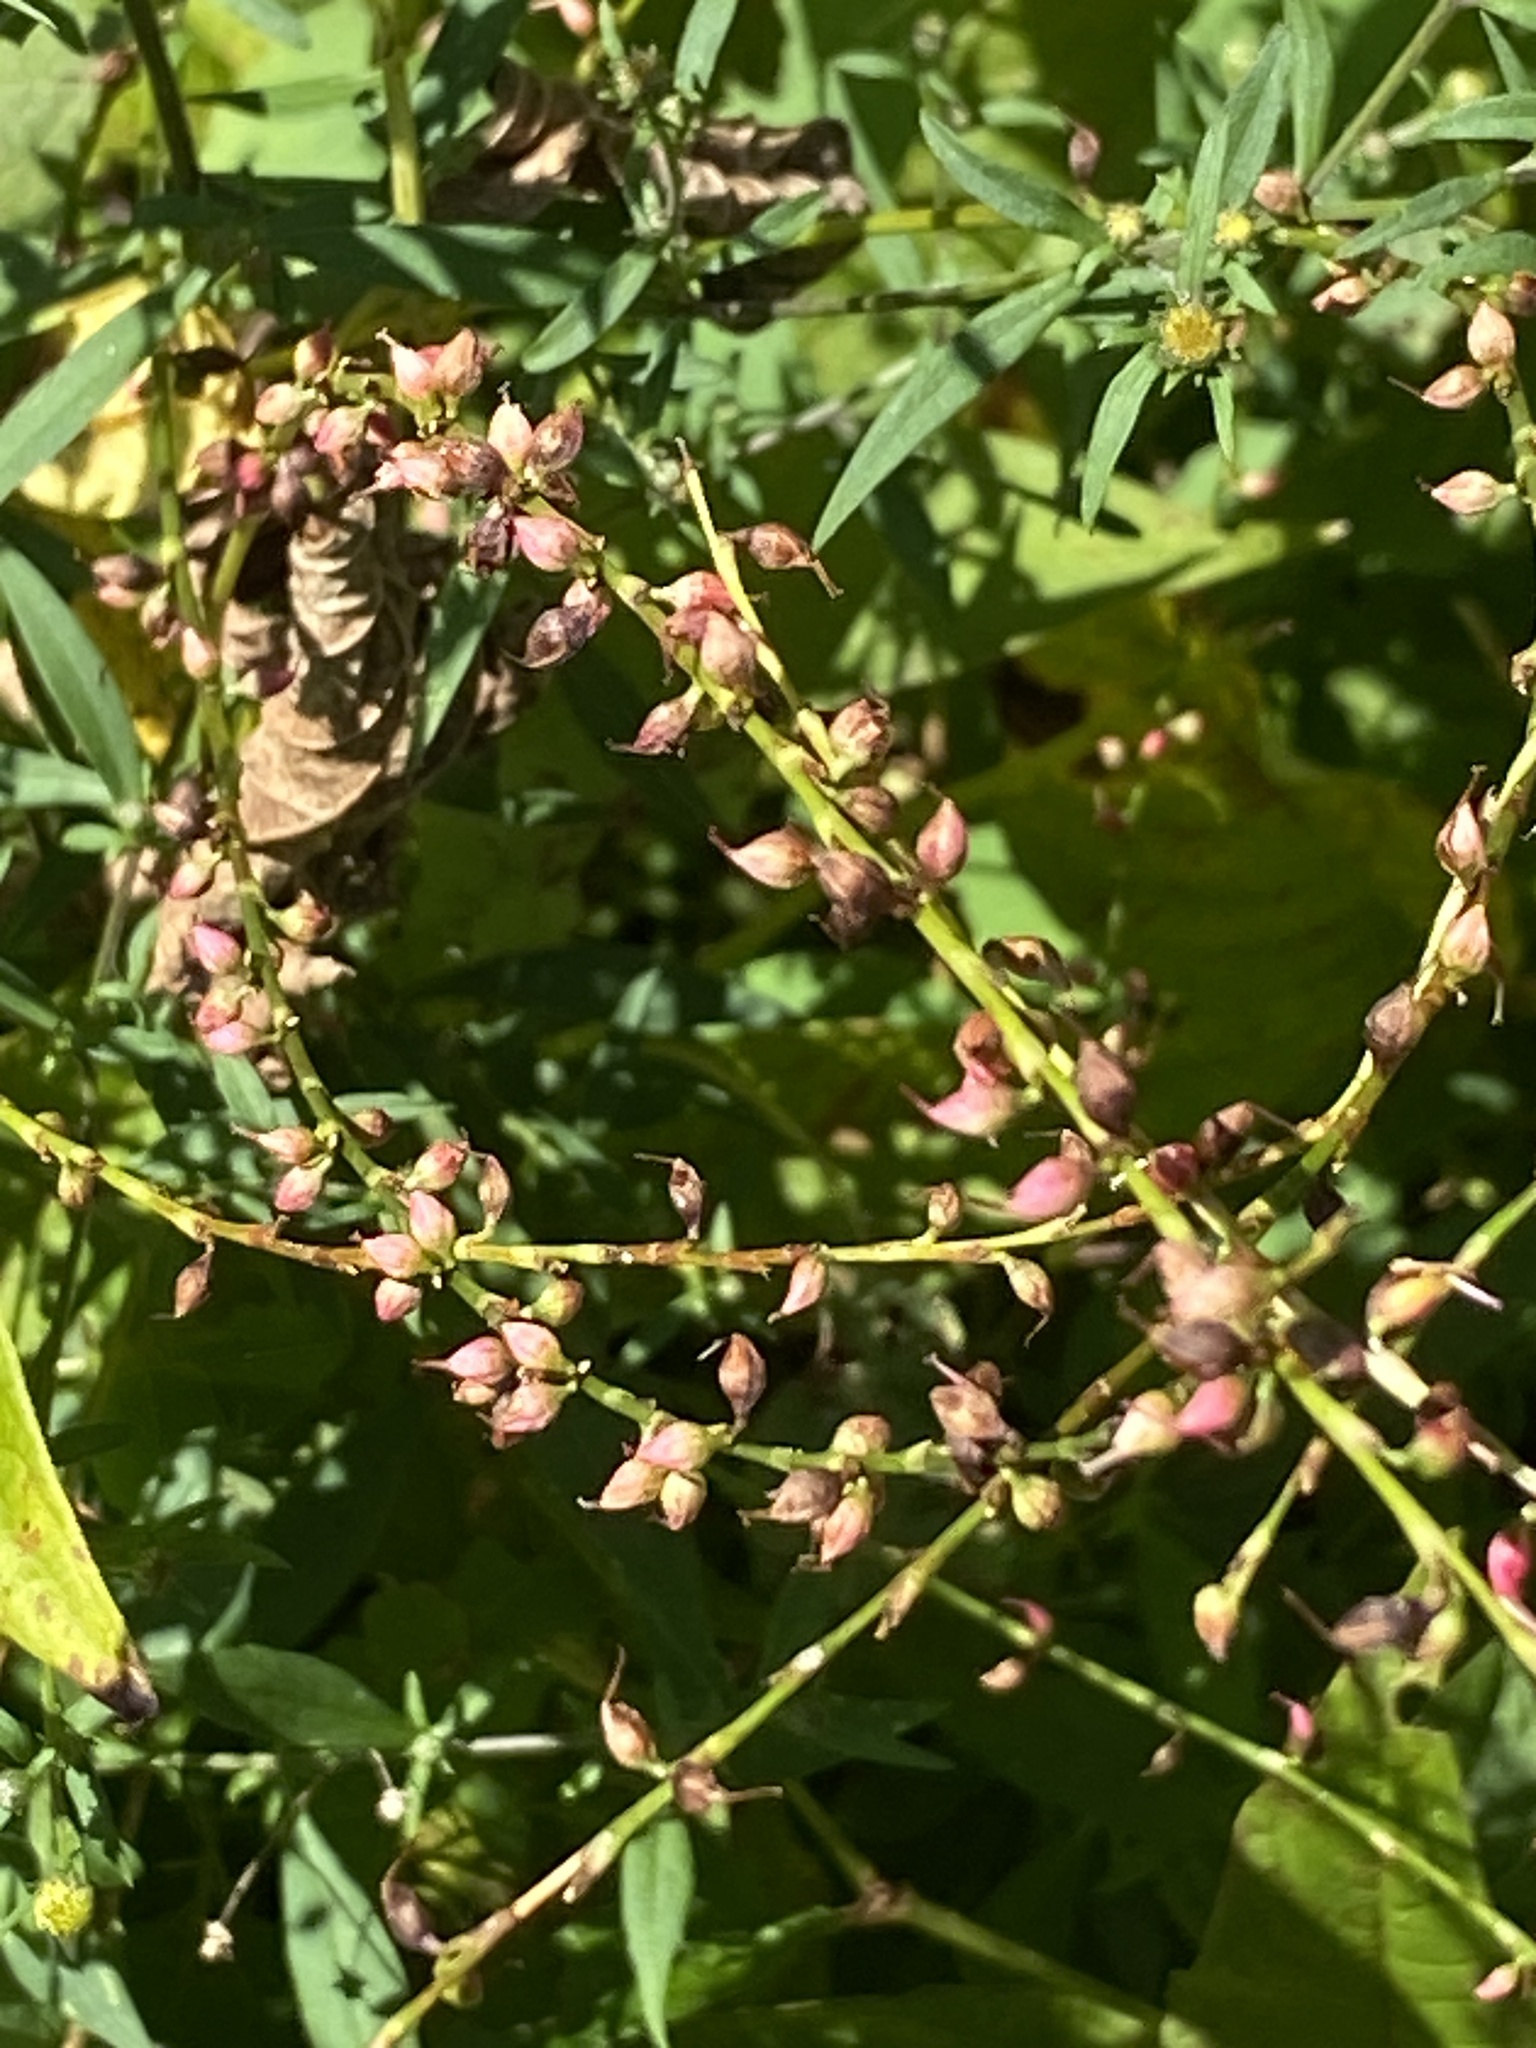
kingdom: Plantae
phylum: Tracheophyta
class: Magnoliopsida
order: Caryophyllales
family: Polygonaceae
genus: Persicaria
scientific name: Persicaria virginiana
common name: Jumpseed
